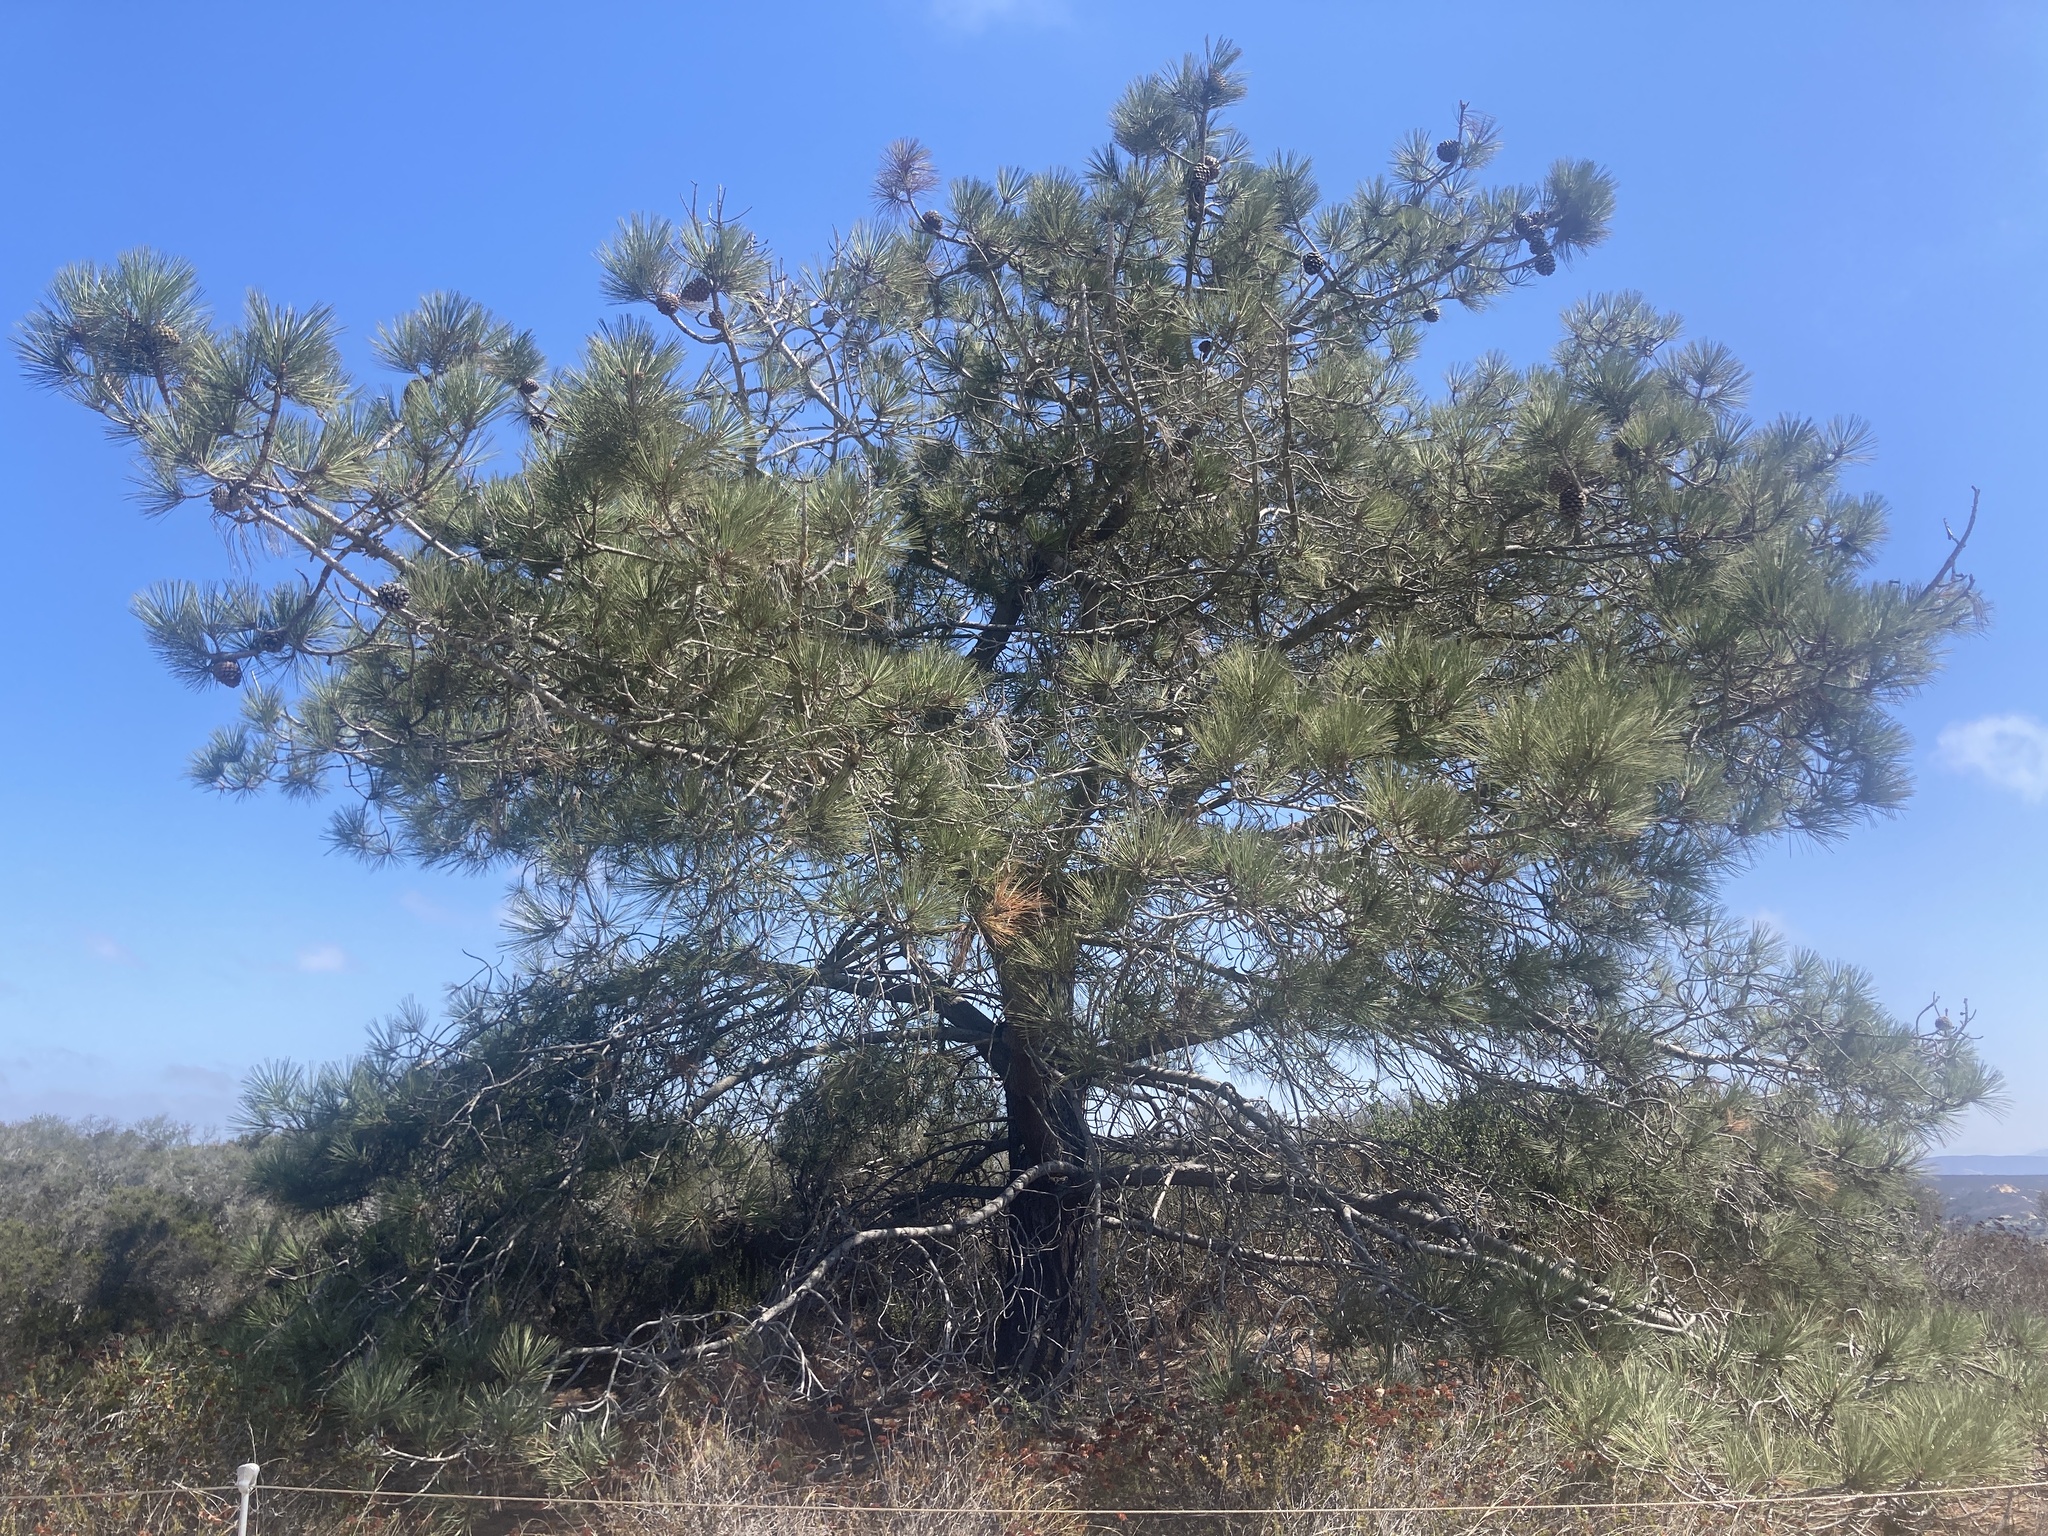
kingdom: Plantae
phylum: Tracheophyta
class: Pinopsida
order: Pinales
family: Pinaceae
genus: Pinus
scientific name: Pinus torreyana
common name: Torrey pine
